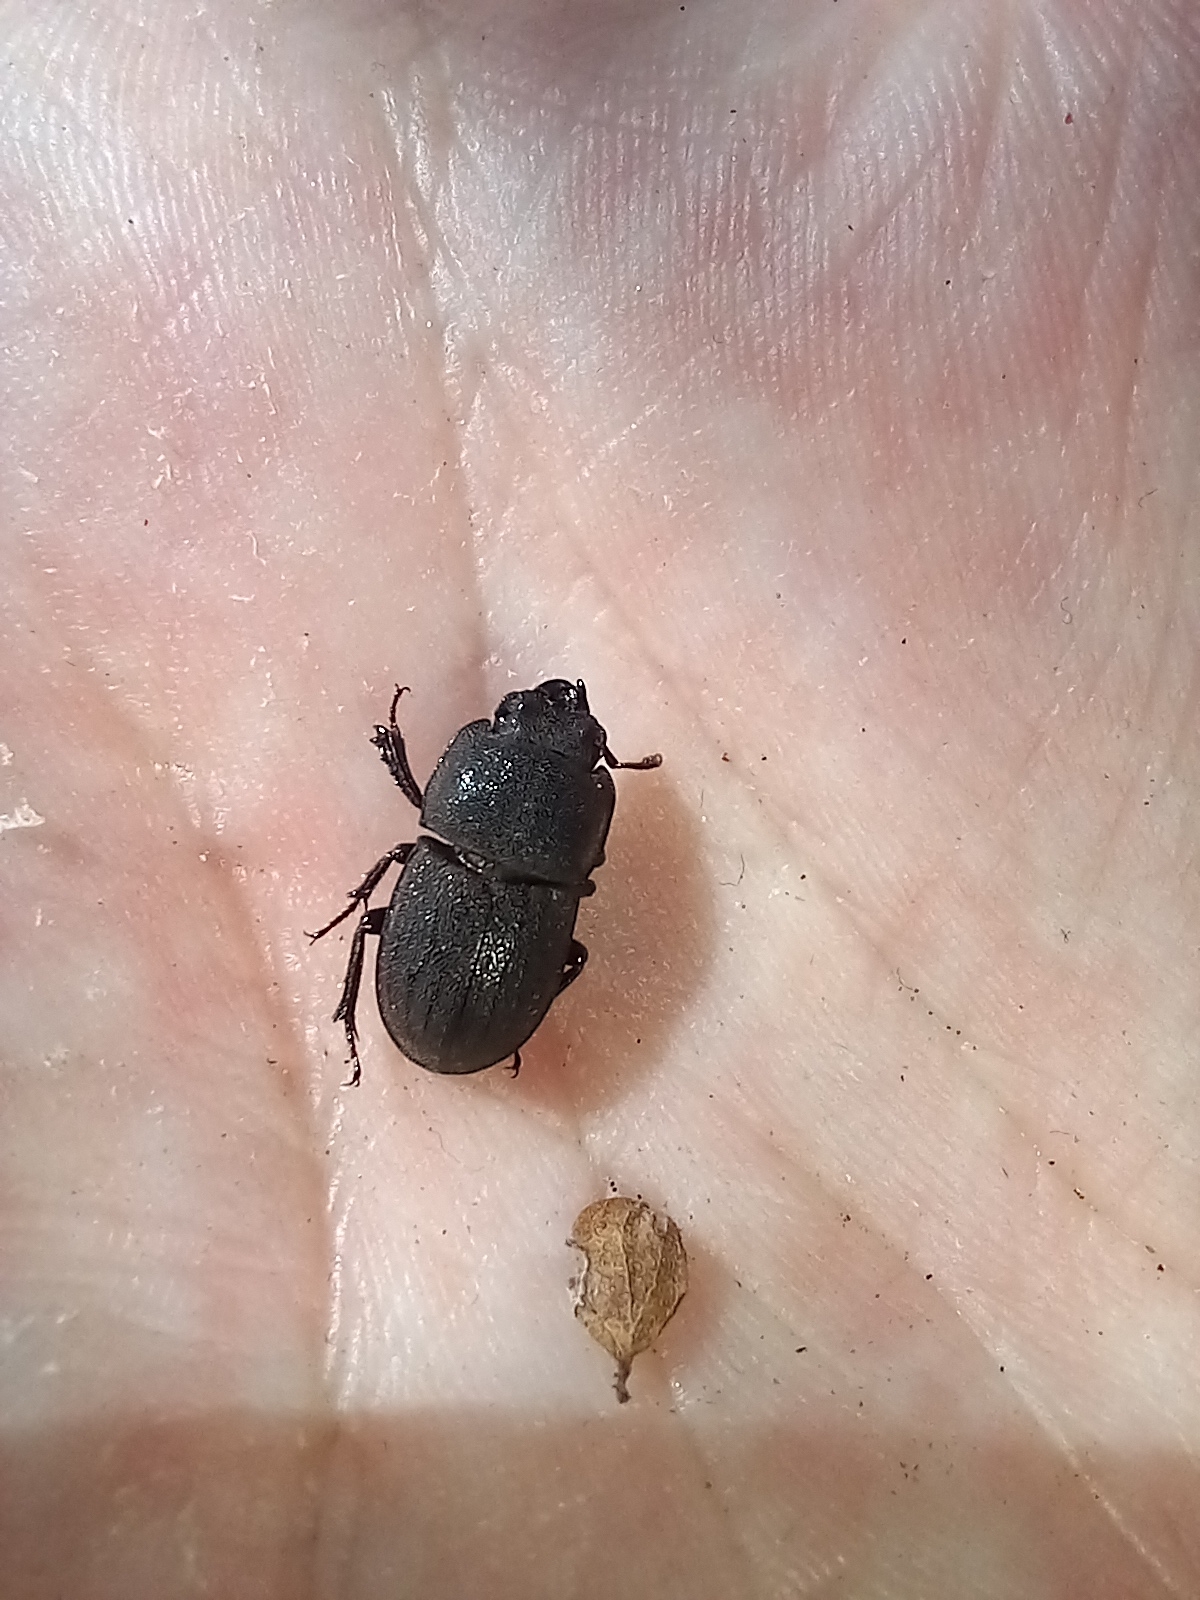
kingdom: Animalia
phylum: Arthropoda
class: Insecta
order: Coleoptera
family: Lucanidae
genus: Geodorcus
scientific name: Geodorcus novaezealandiae
